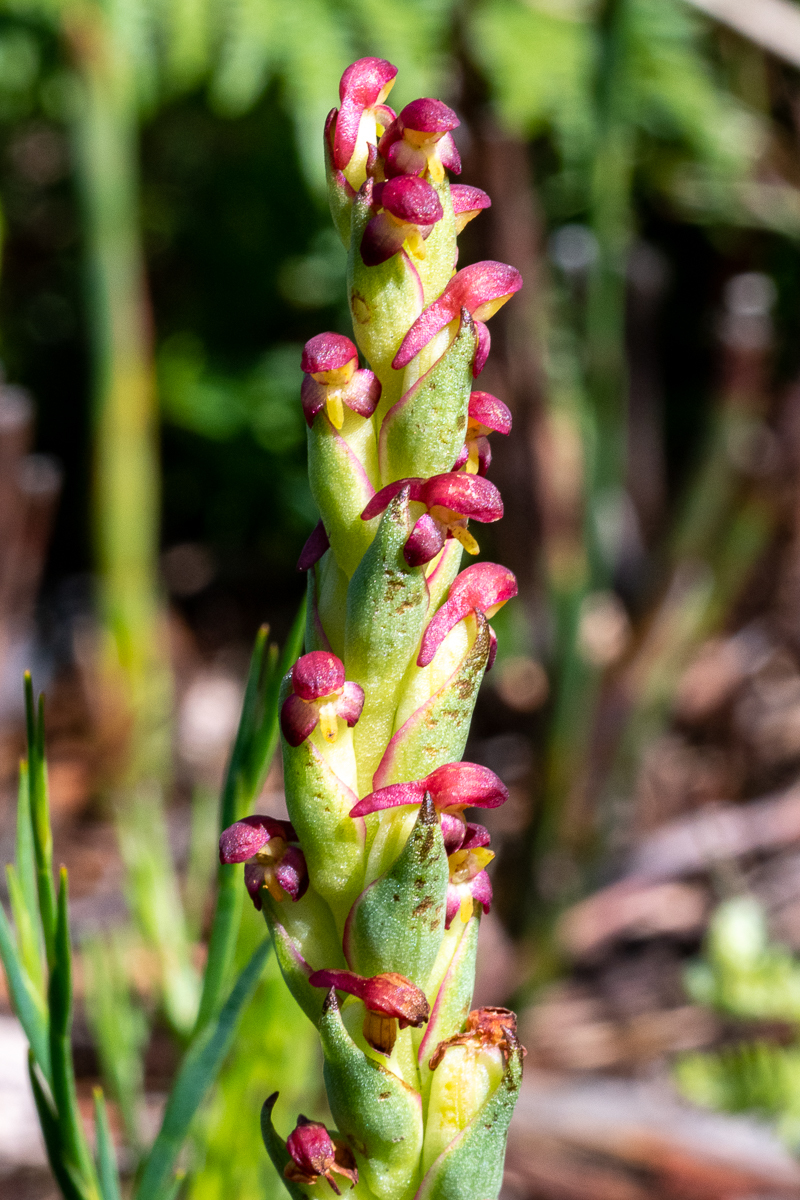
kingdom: Plantae
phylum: Tracheophyta
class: Liliopsida
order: Asparagales
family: Orchidaceae
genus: Disa
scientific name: Disa bracteata
